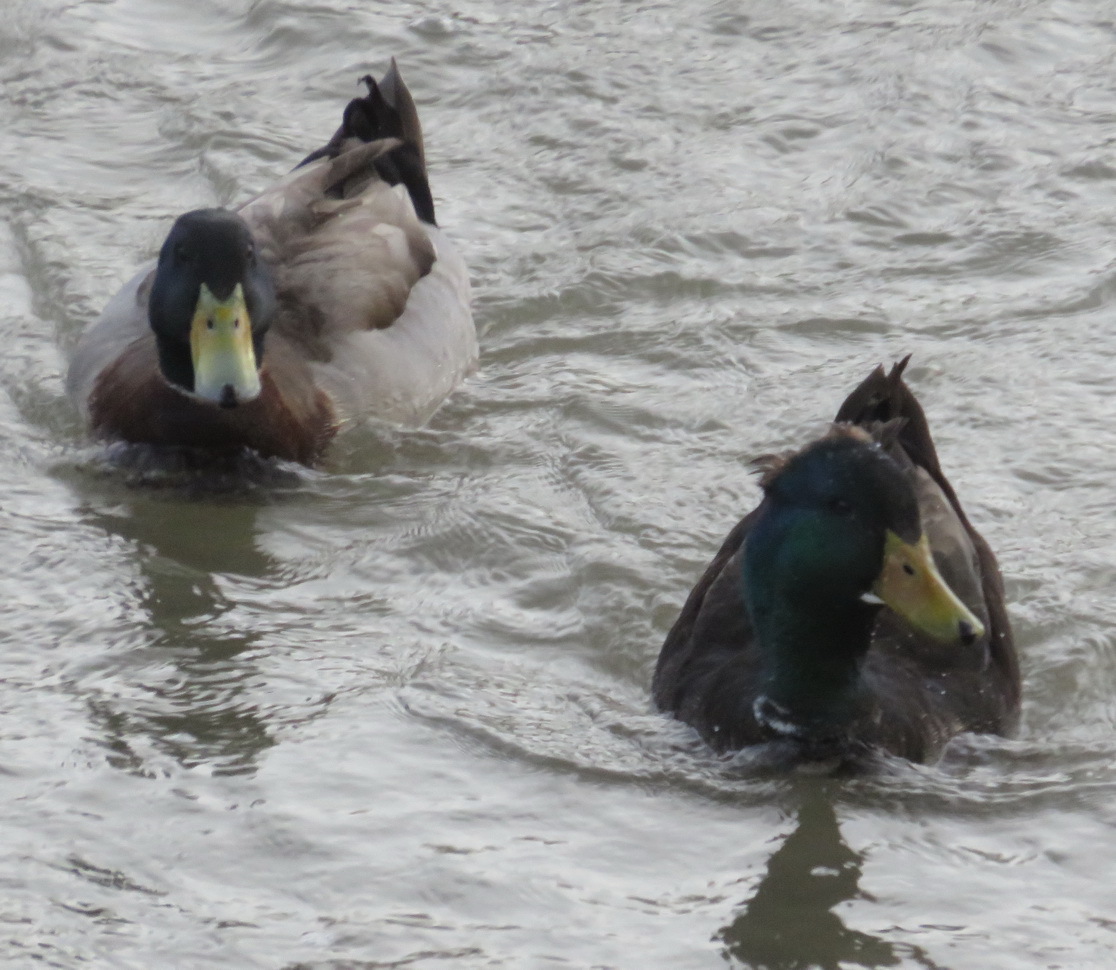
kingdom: Animalia
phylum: Chordata
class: Aves
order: Anseriformes
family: Anatidae
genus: Anas
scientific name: Anas platyrhynchos
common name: Mallard
